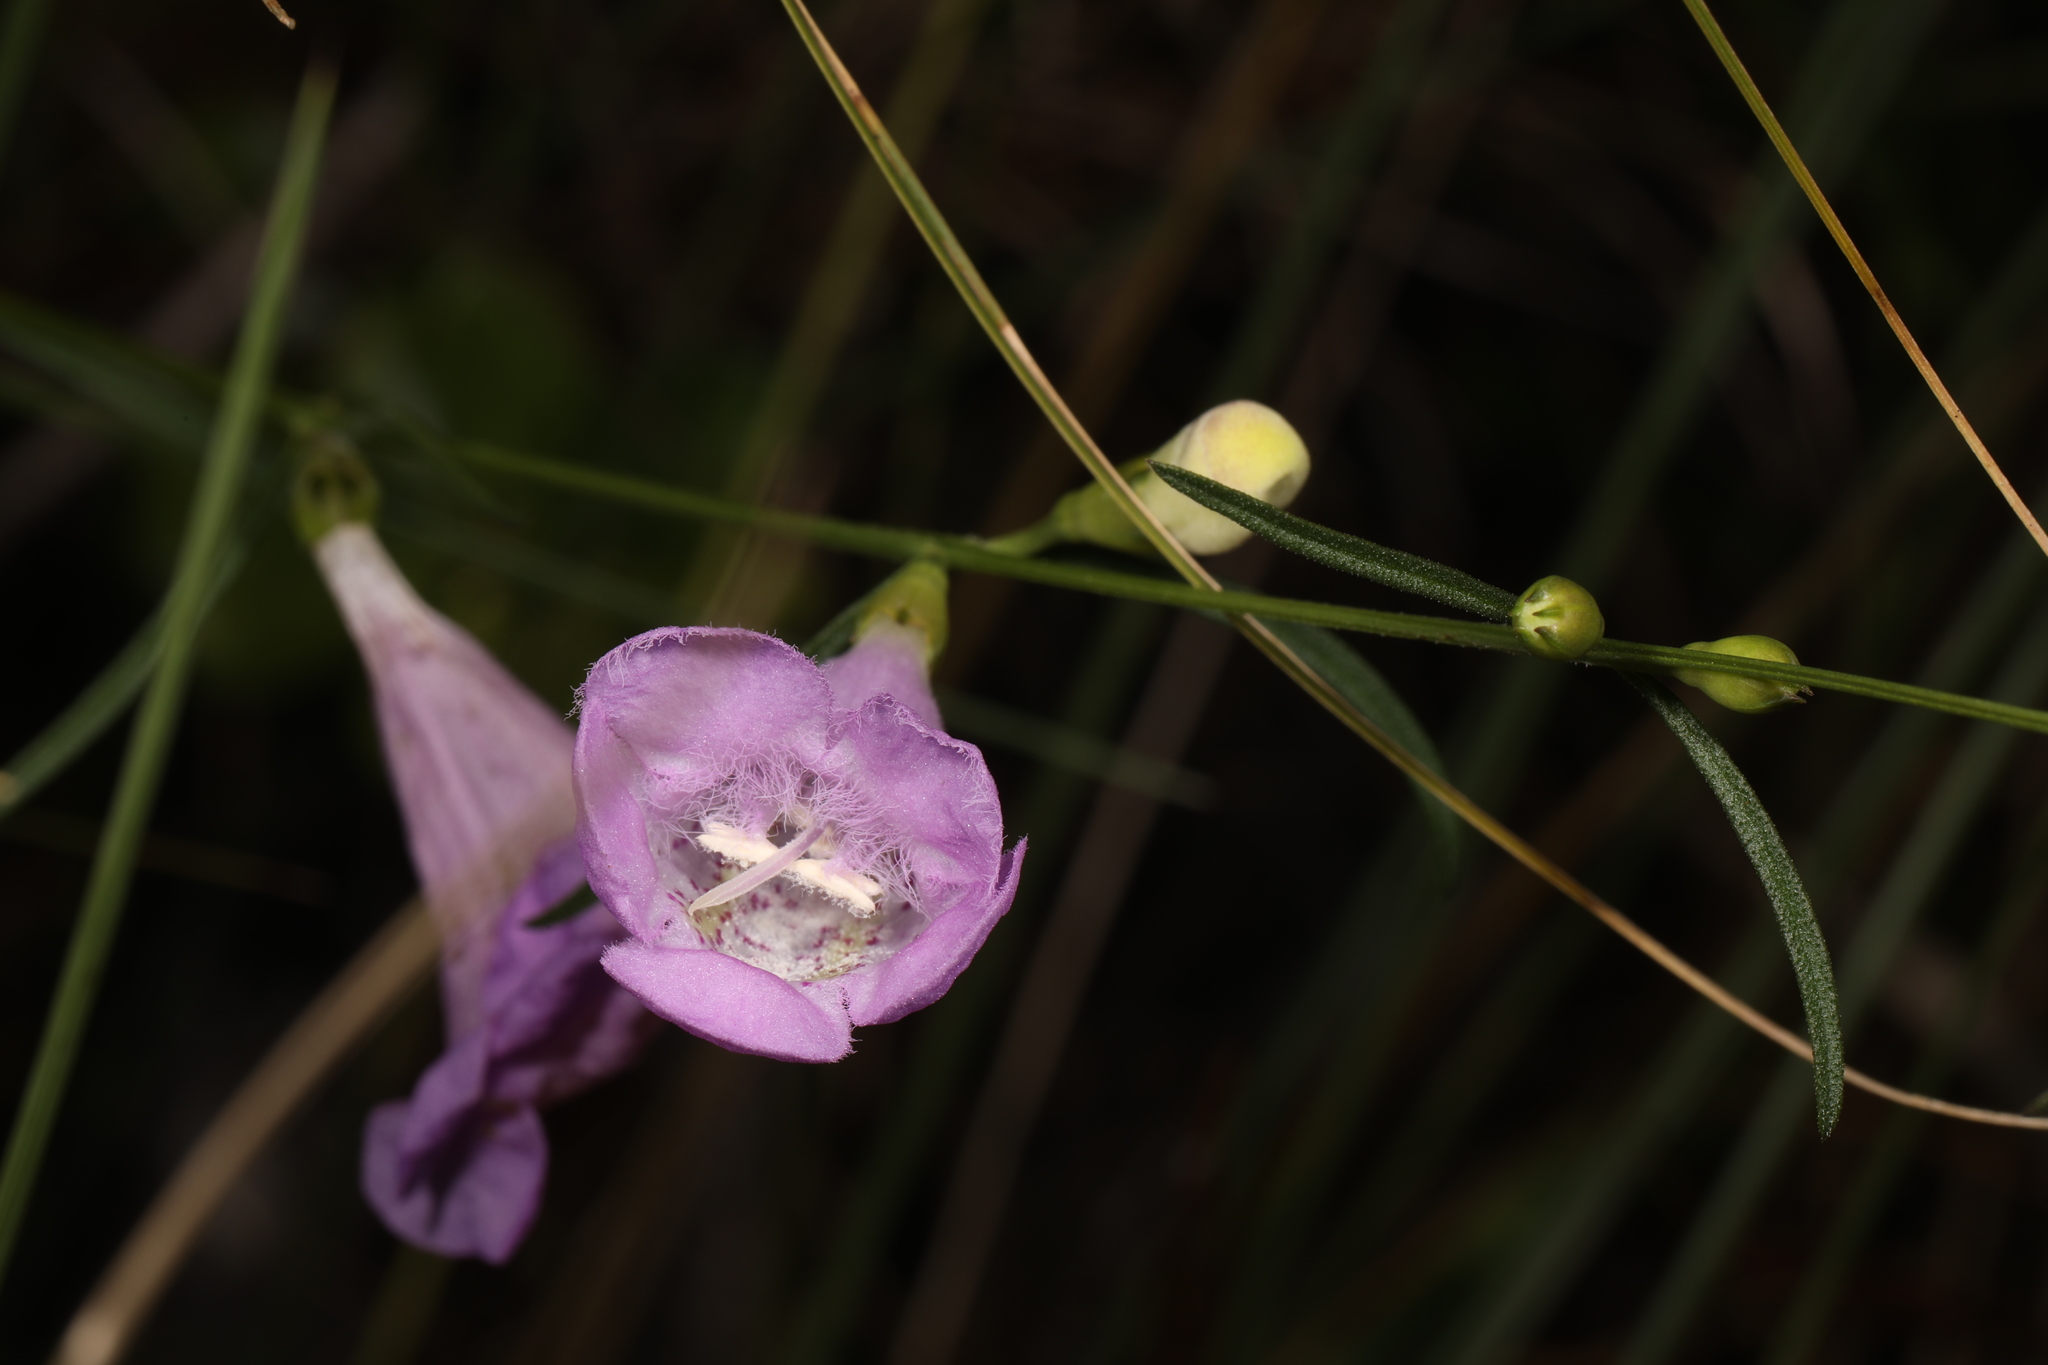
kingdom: Plantae
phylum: Tracheophyta
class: Magnoliopsida
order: Lamiales
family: Orobanchaceae
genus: Agalinis
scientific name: Agalinis purpurea
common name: Purple false foxglove
